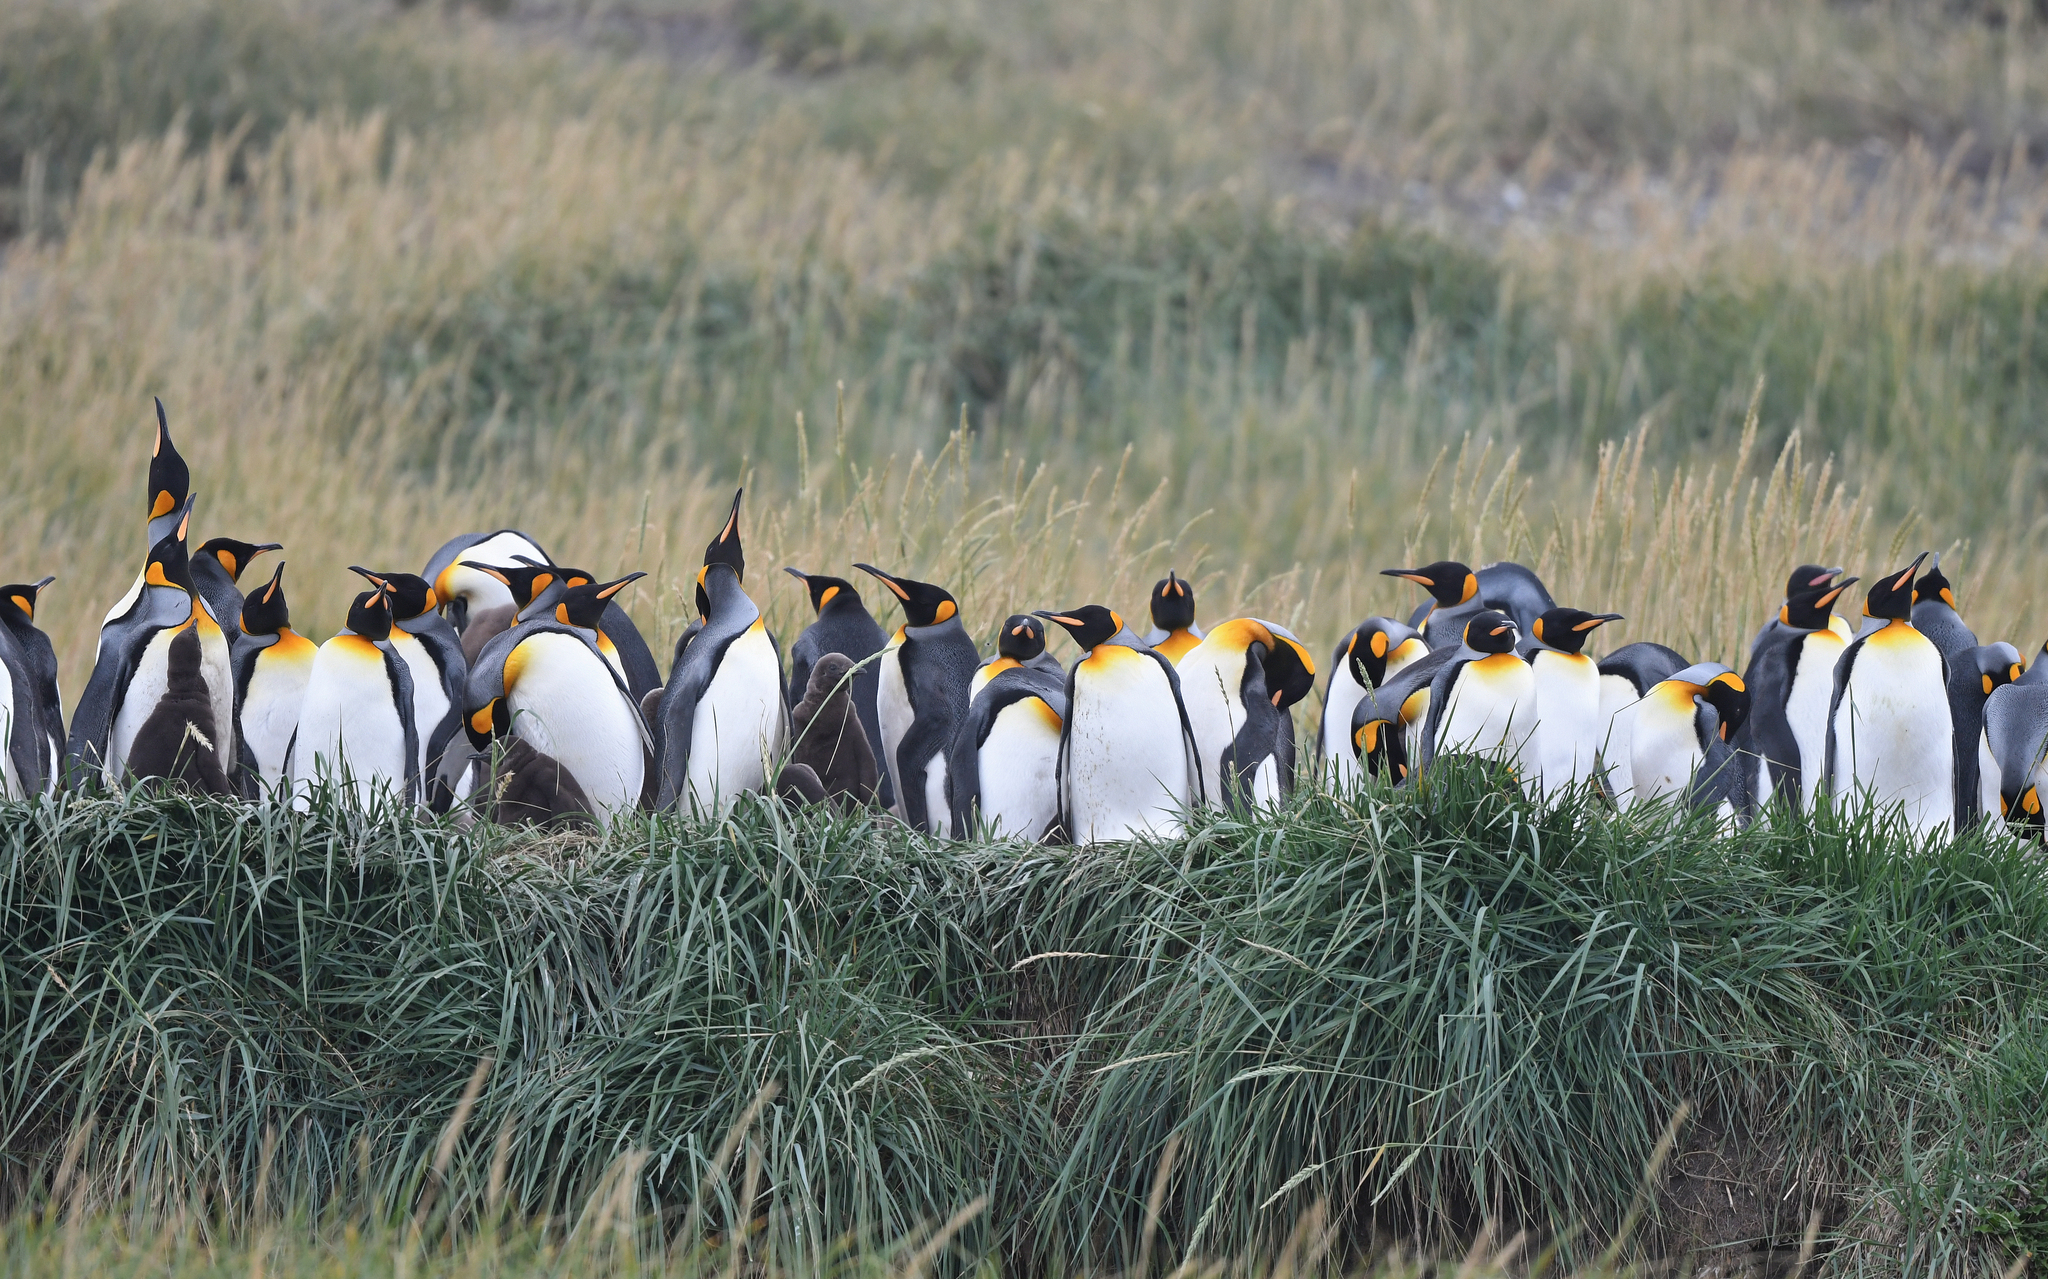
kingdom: Animalia
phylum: Chordata
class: Aves
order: Sphenisciformes
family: Spheniscidae
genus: Aptenodytes
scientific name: Aptenodytes patagonicus
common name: King penguin
